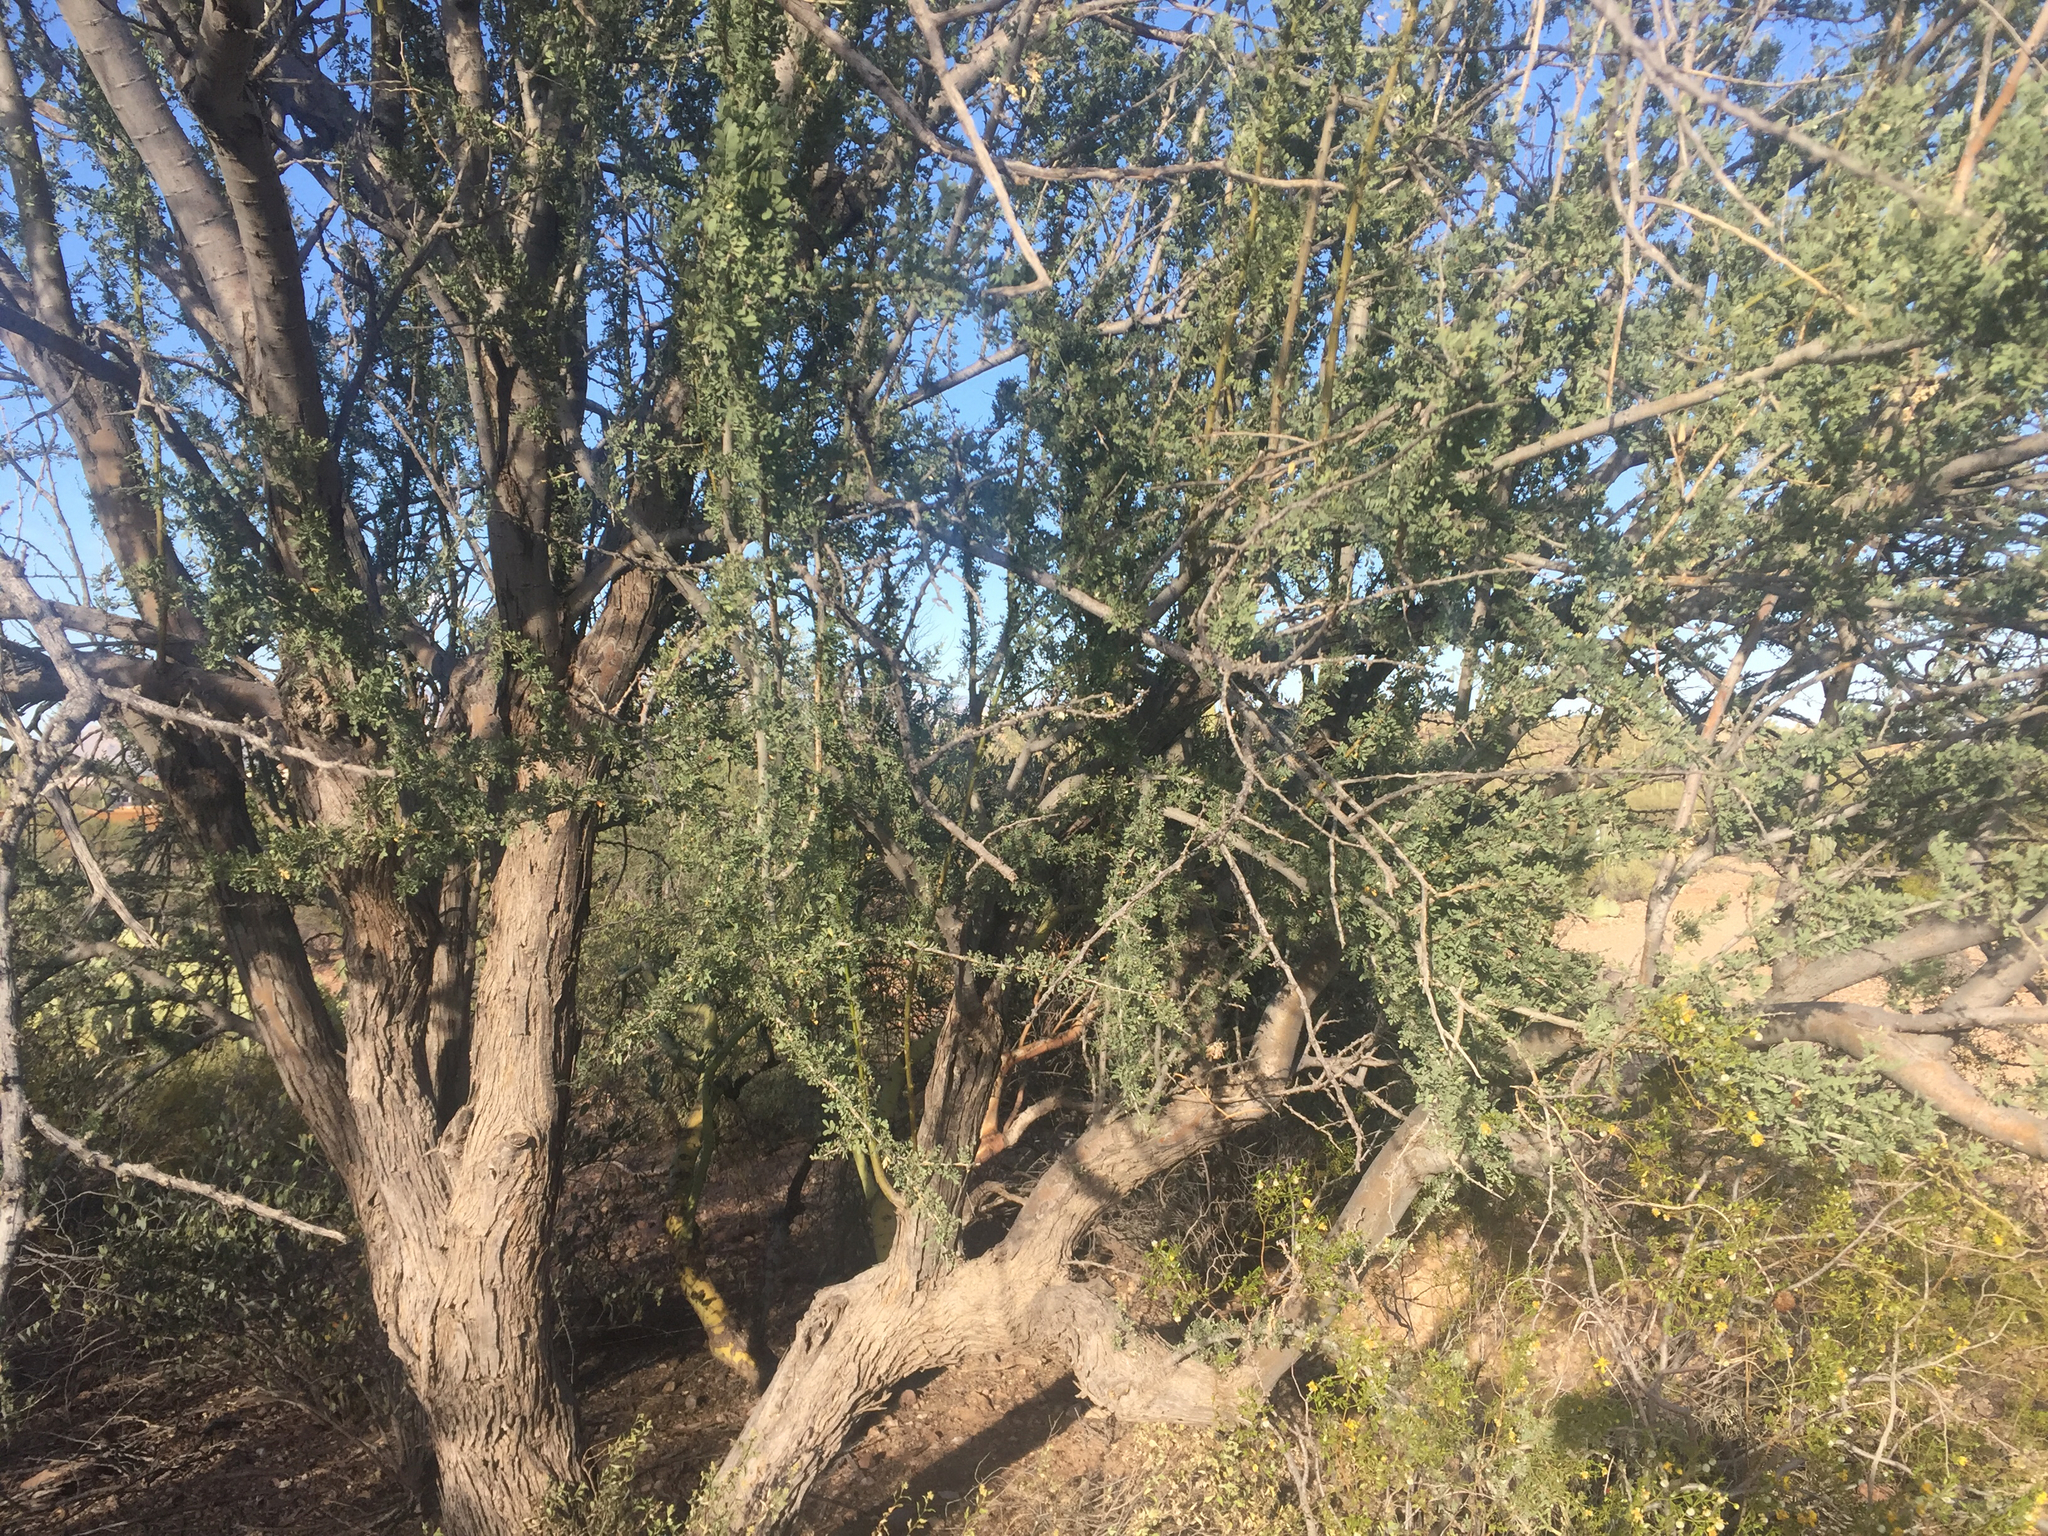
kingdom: Plantae
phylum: Tracheophyta
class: Magnoliopsida
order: Fabales
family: Fabaceae
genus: Olneya
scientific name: Olneya tesota
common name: Desert ironwood
